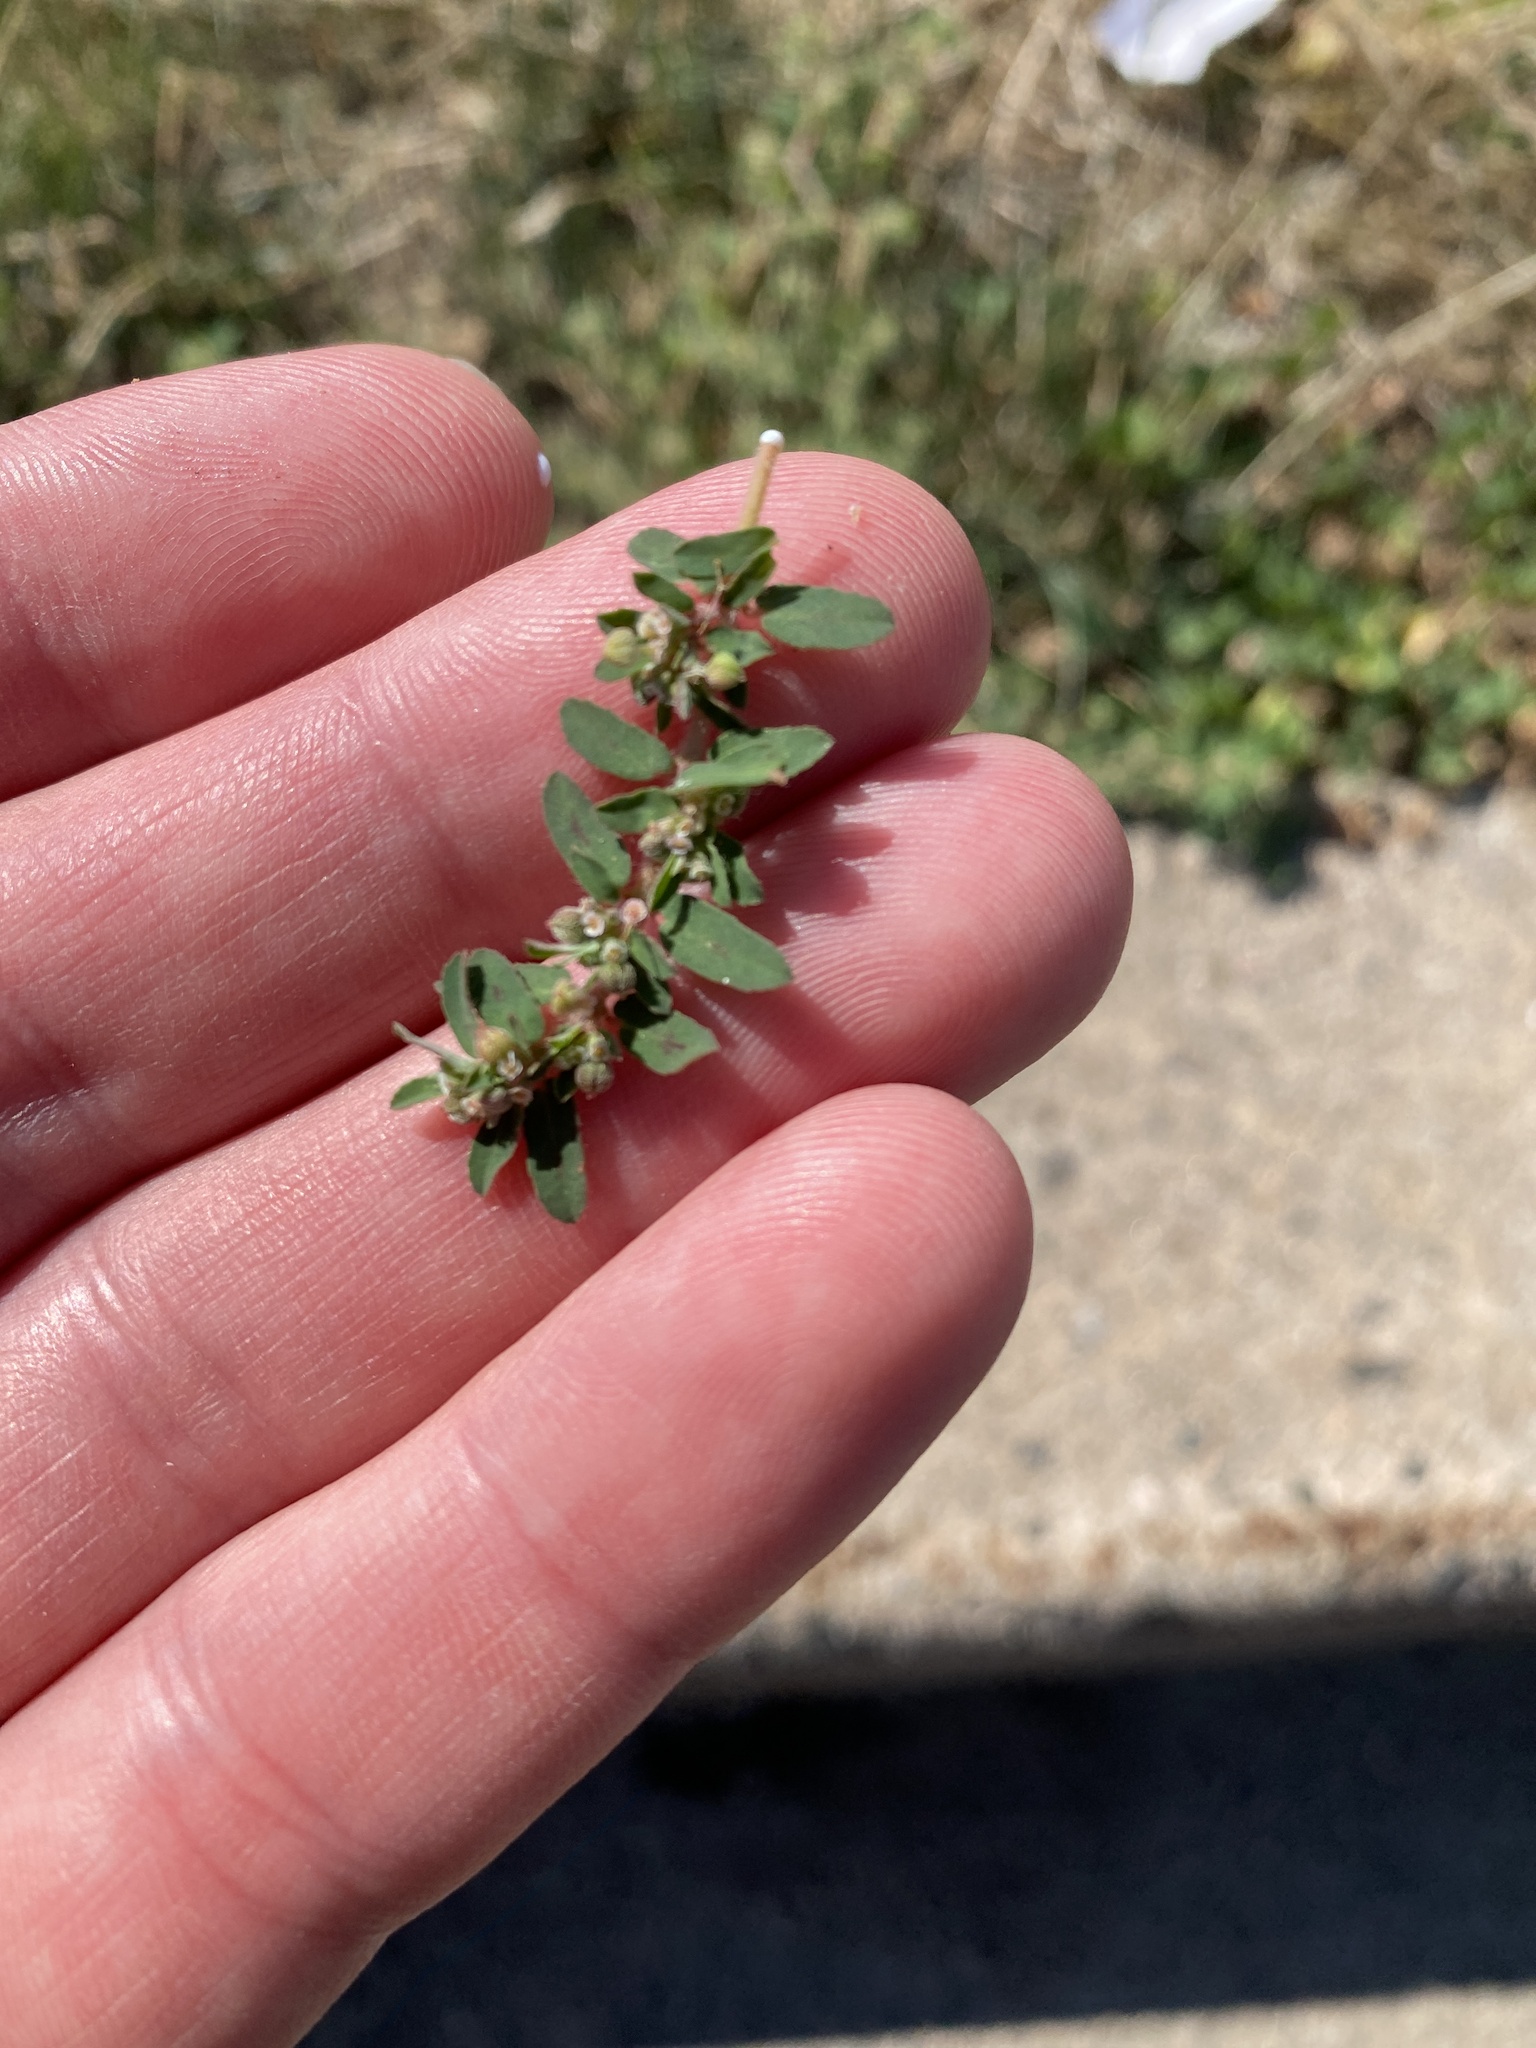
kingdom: Plantae
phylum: Tracheophyta
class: Magnoliopsida
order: Malpighiales
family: Euphorbiaceae
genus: Euphorbia
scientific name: Euphorbia maculata
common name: Spotted spurge
